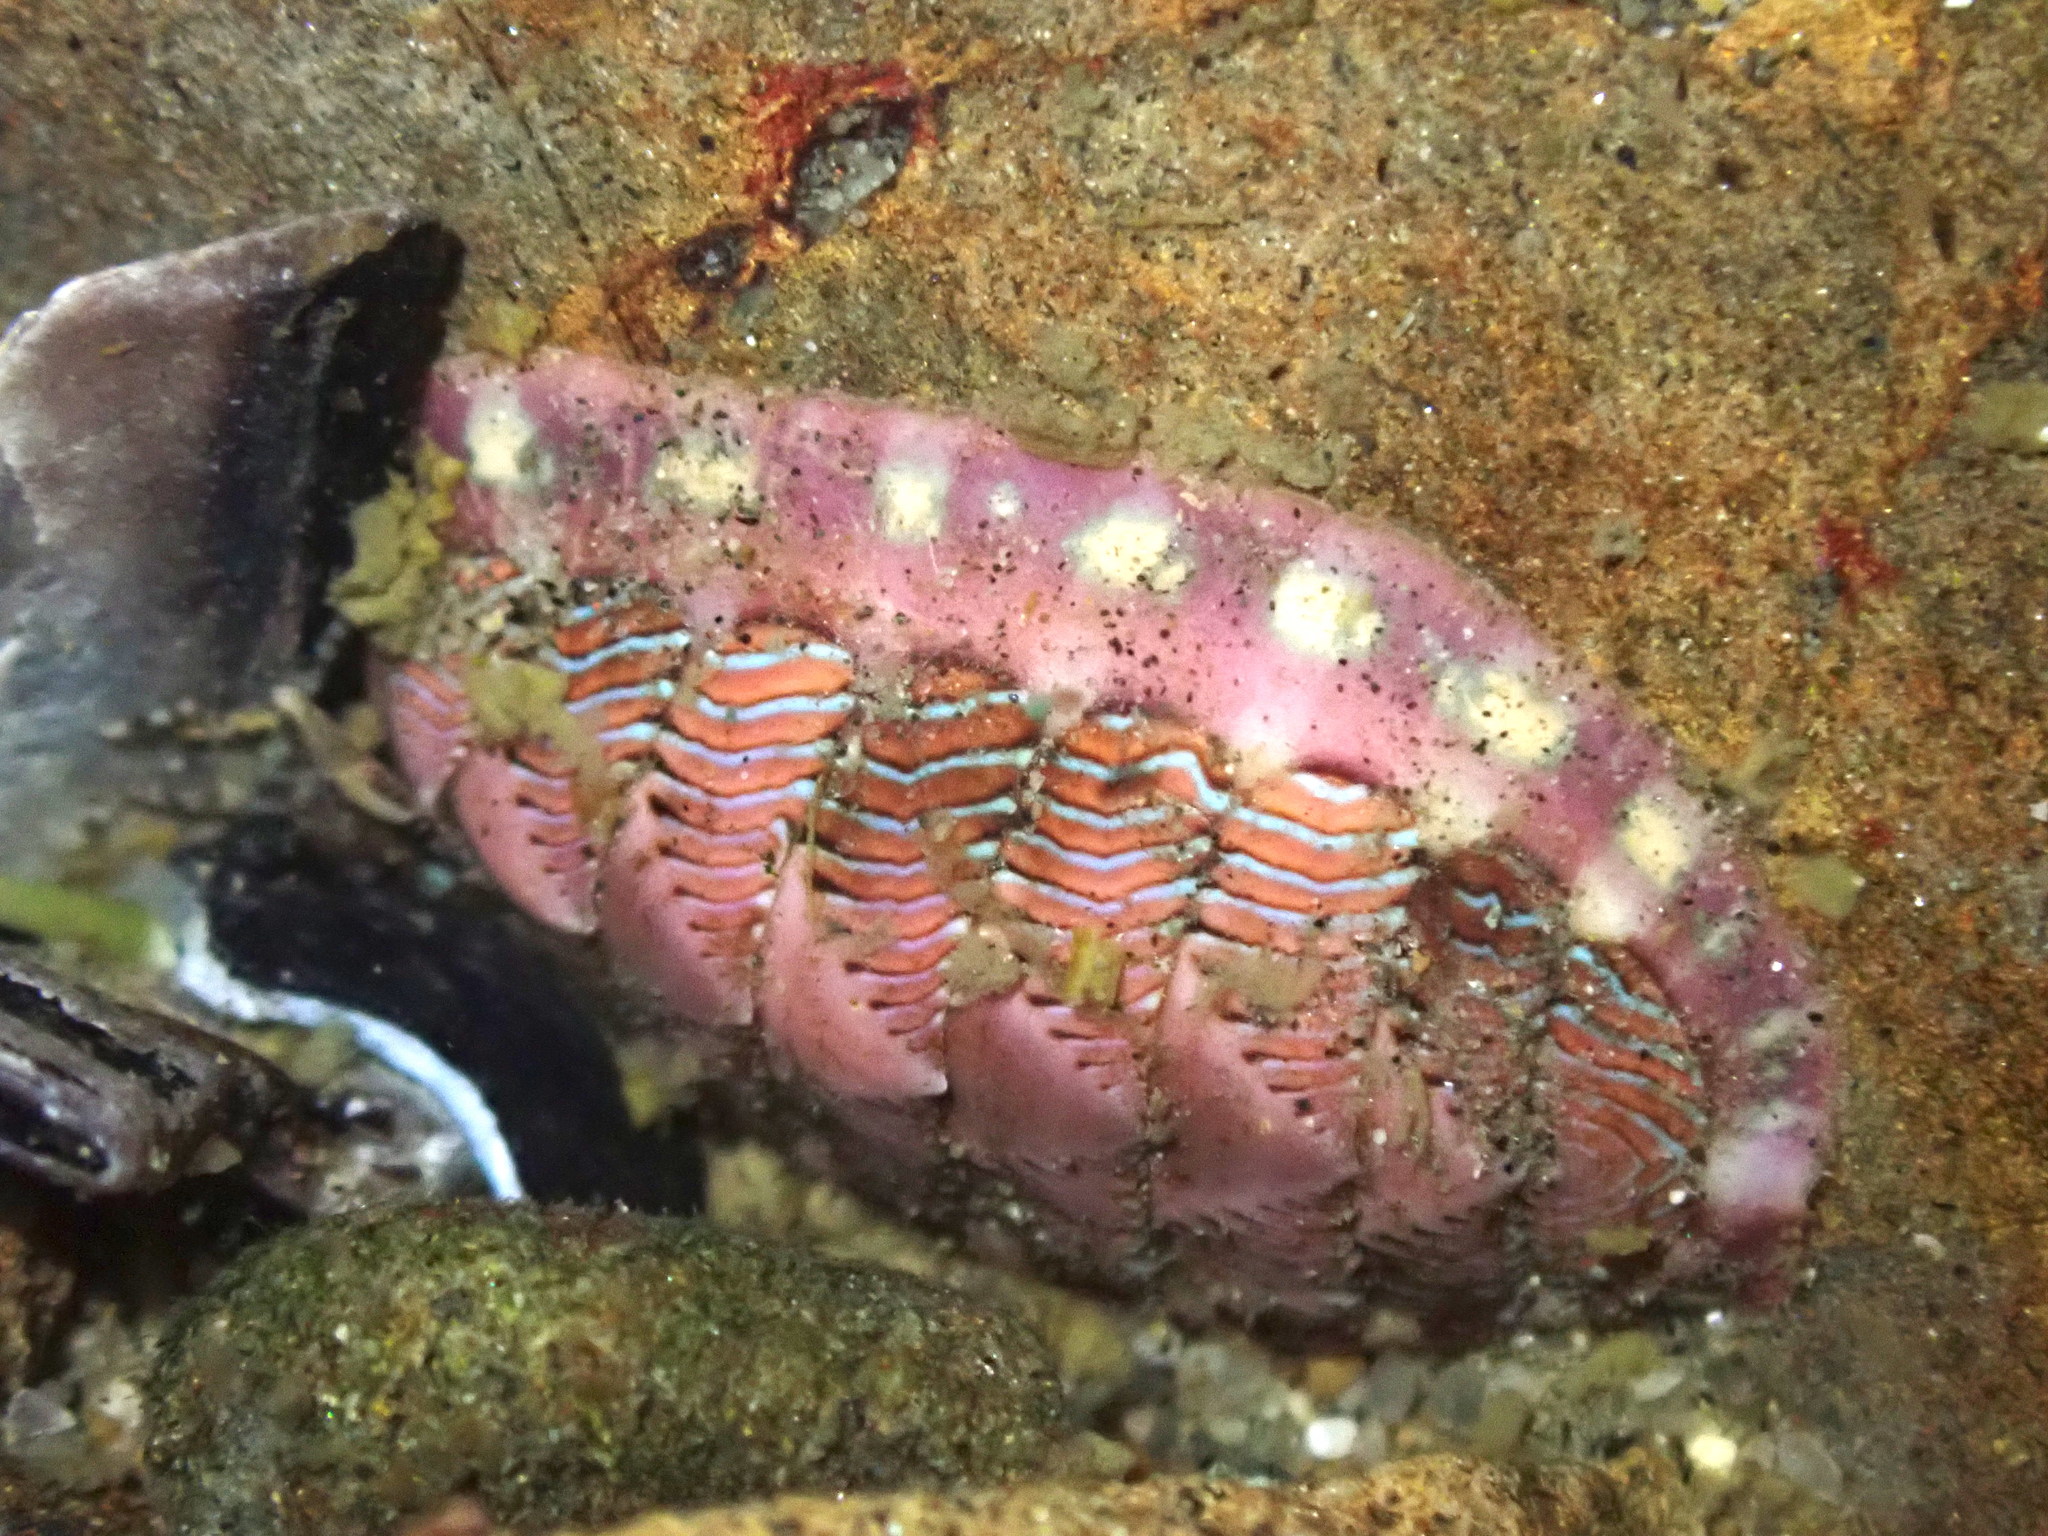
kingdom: Animalia
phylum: Mollusca
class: Polyplacophora
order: Chitonida
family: Tonicellidae
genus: Tonicella
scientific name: Tonicella lineata
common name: Lined chiton
